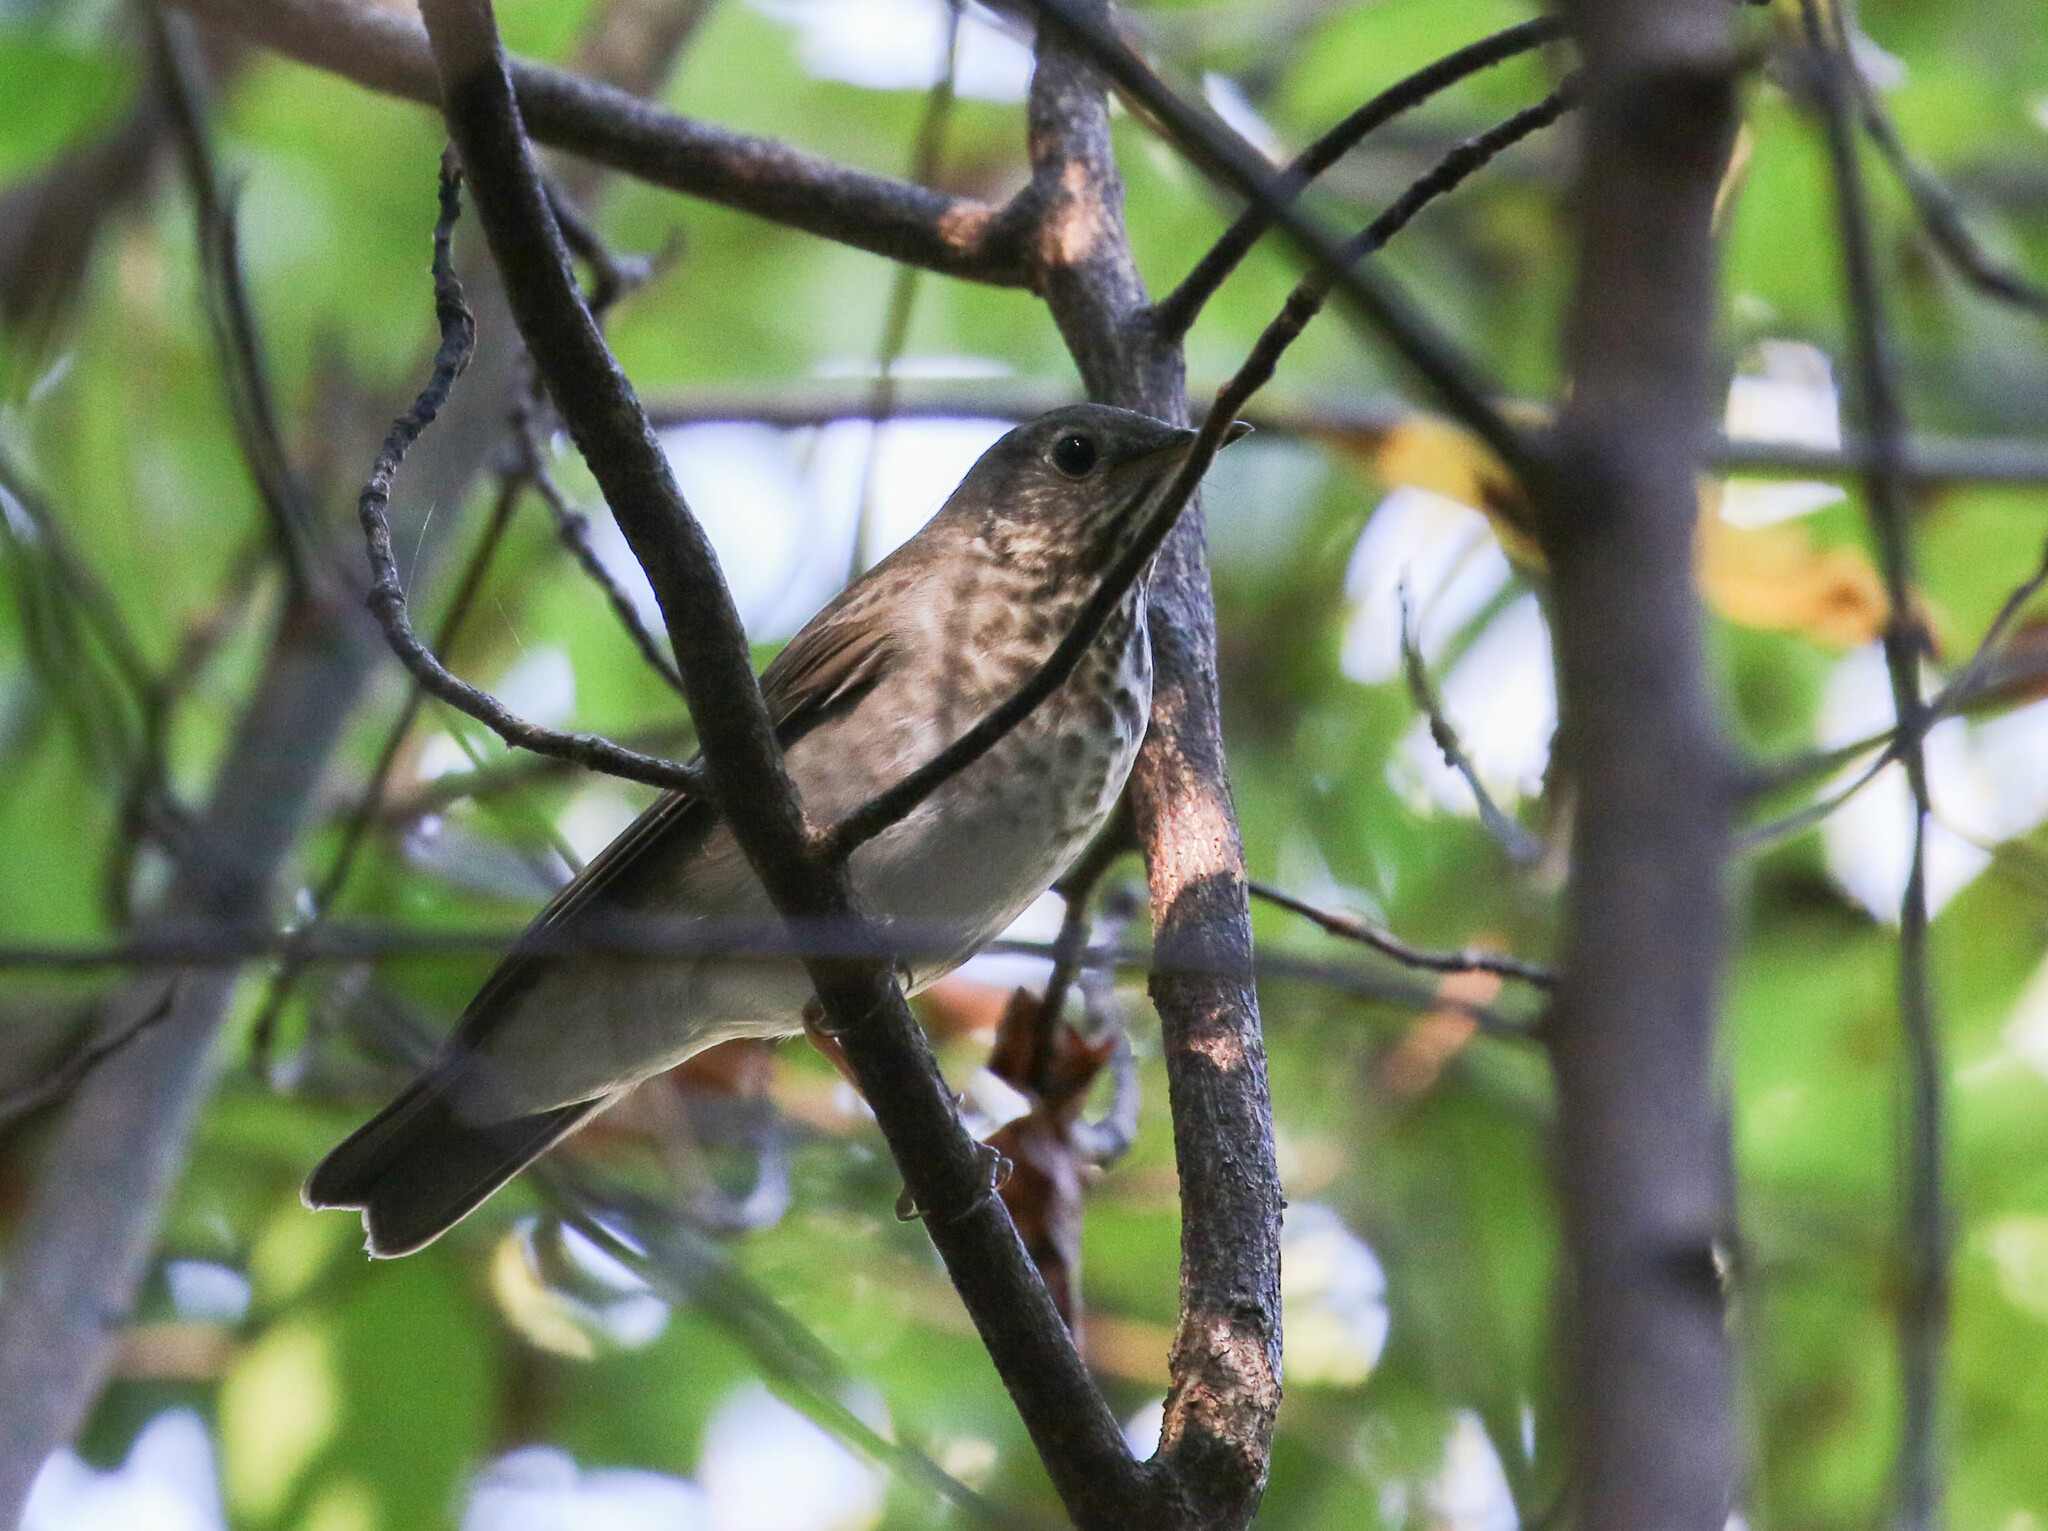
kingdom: Animalia
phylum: Chordata
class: Aves
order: Passeriformes
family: Turdidae
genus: Catharus
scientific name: Catharus minimus
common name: Grey-cheeked thrush
